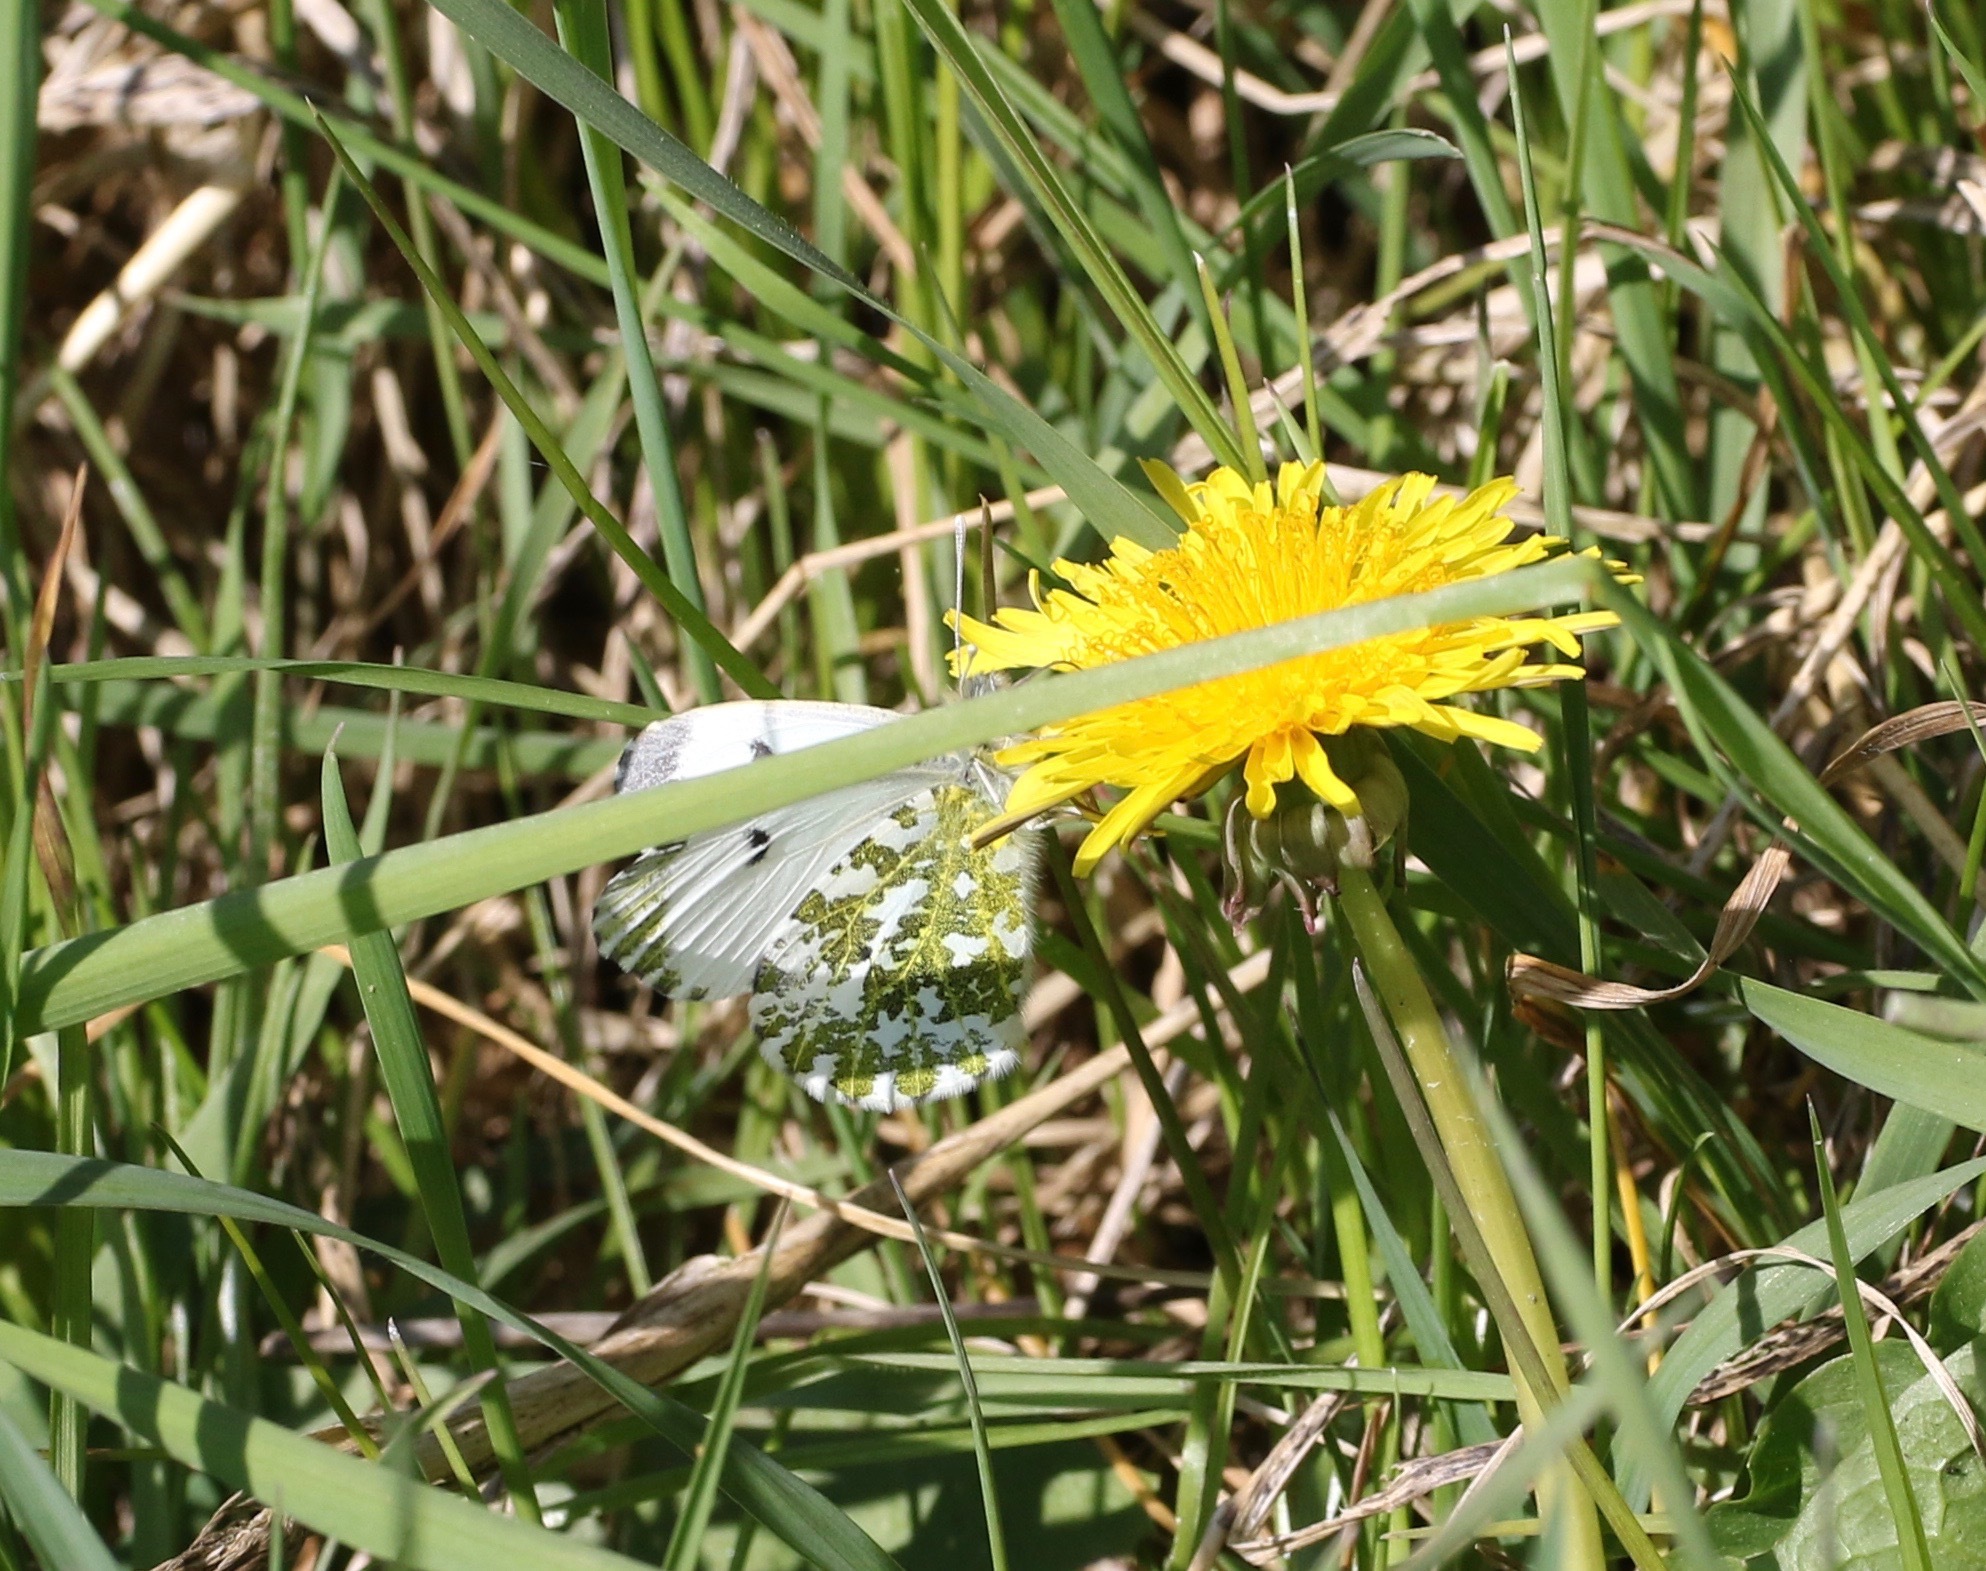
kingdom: Animalia
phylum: Arthropoda
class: Insecta
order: Lepidoptera
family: Pieridae
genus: Anthocharis
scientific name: Anthocharis cardamines
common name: Orange-tip
